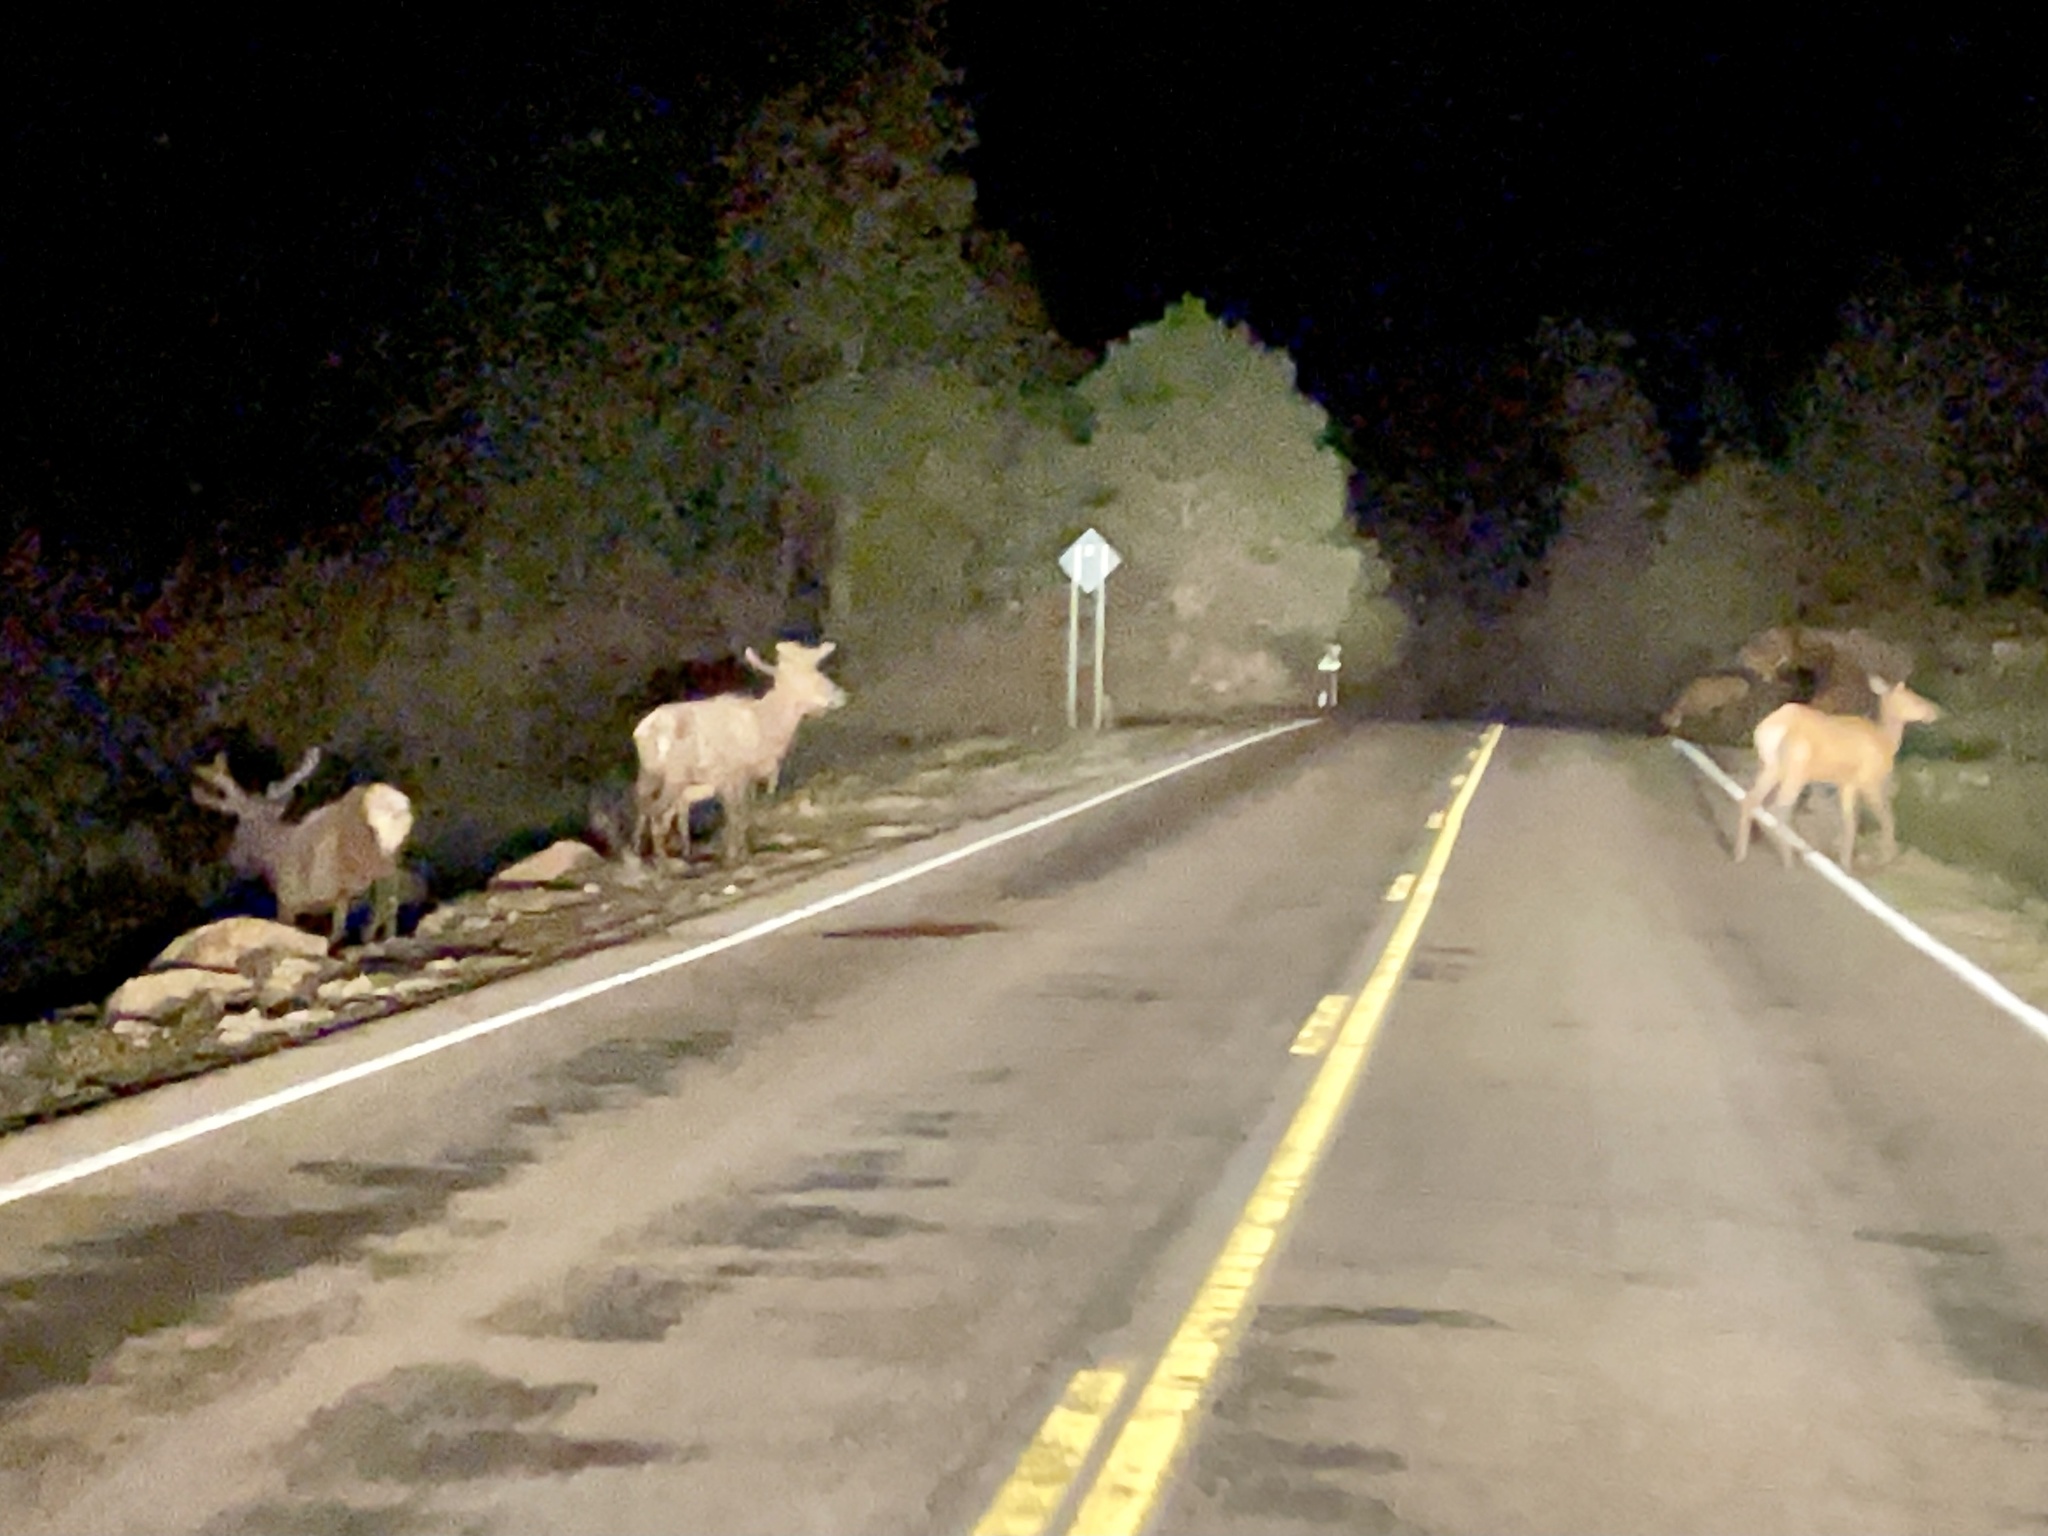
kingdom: Animalia
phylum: Chordata
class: Mammalia
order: Artiodactyla
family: Cervidae
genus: Cervus
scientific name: Cervus elaphus
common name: Red deer
